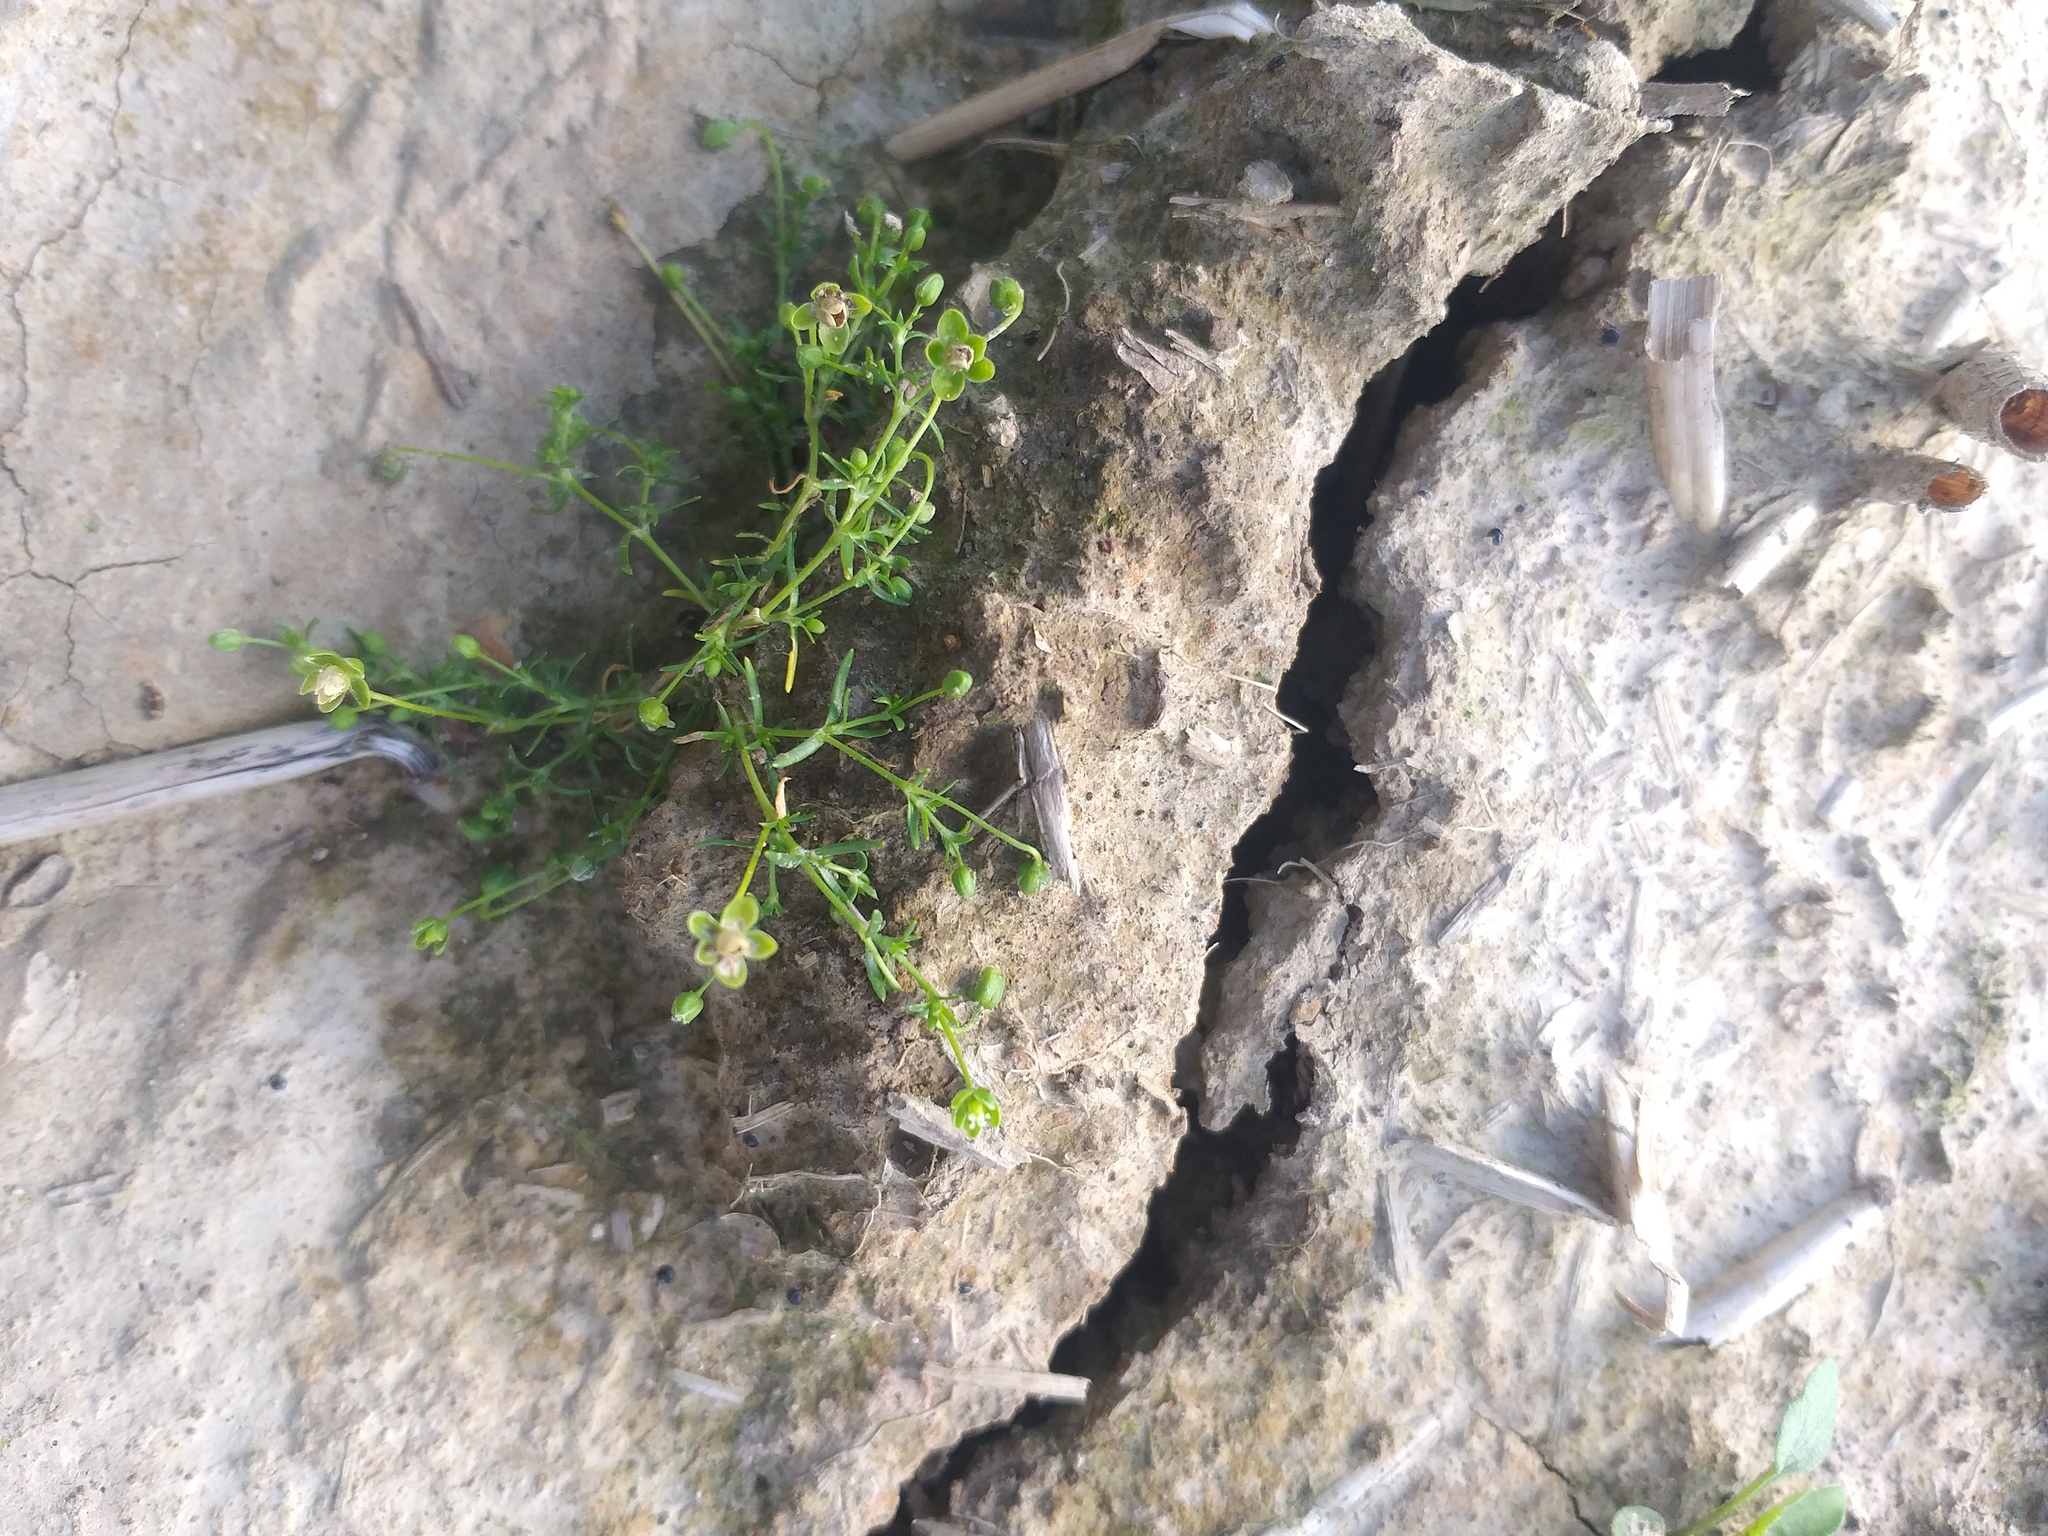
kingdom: Plantae
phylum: Tracheophyta
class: Magnoliopsida
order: Caryophyllales
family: Caryophyllaceae
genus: Sagina
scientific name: Sagina procumbens
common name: Procumbent pearlwort
